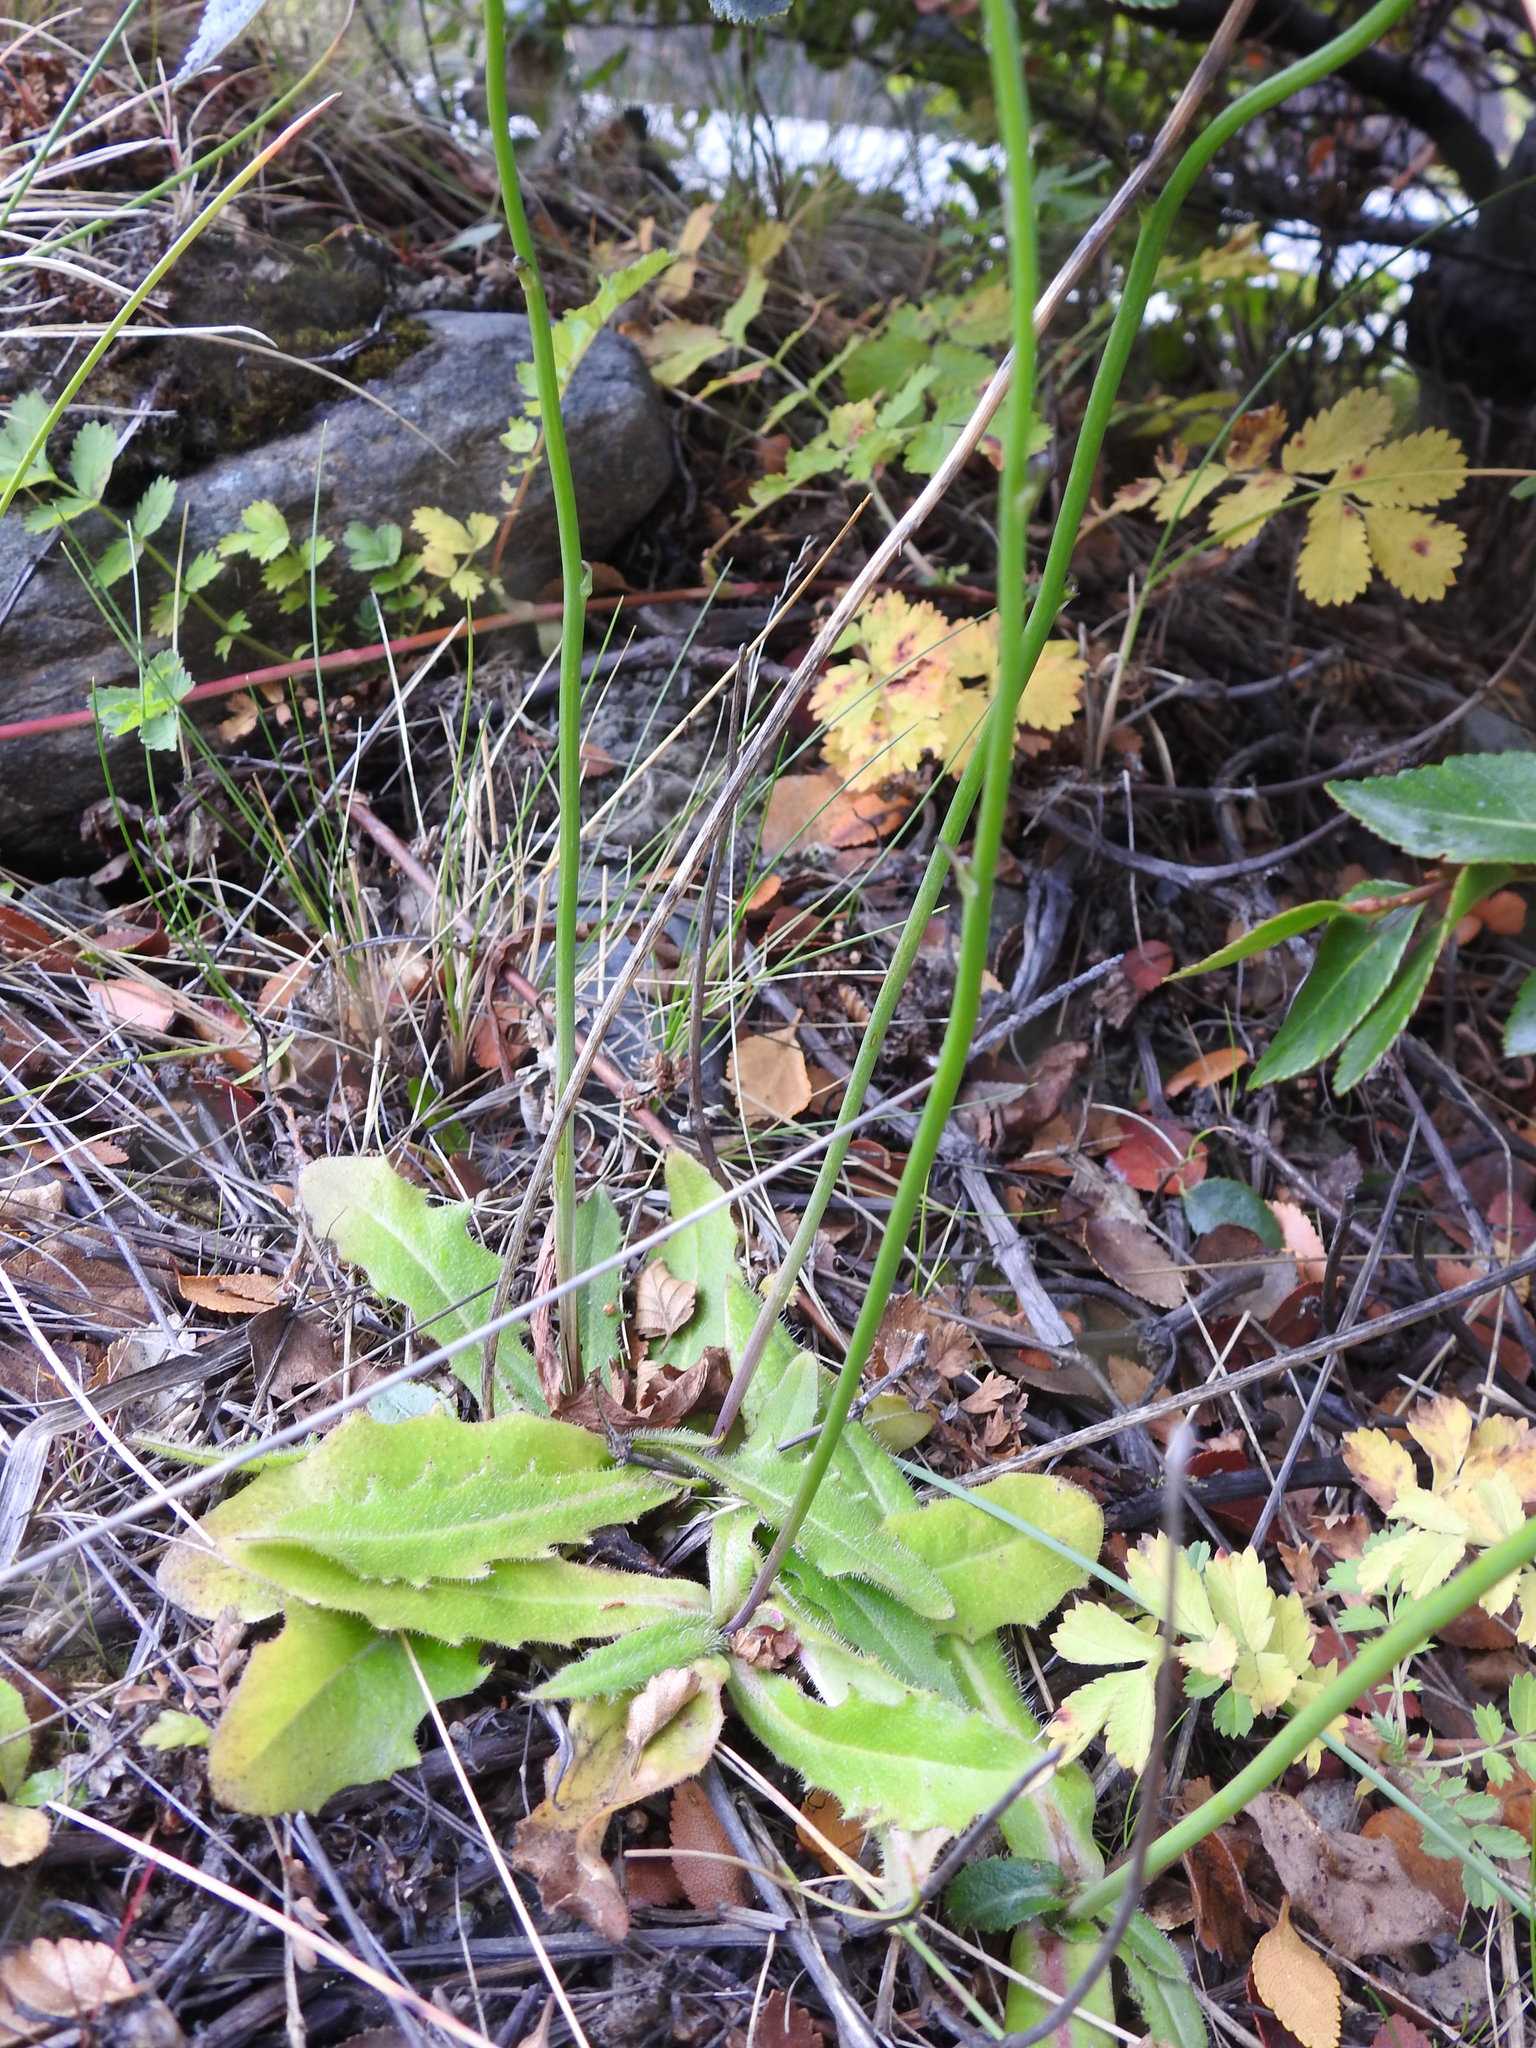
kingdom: Plantae
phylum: Tracheophyta
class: Magnoliopsida
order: Asterales
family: Asteraceae
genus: Hypochaeris
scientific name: Hypochaeris radicata
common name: Flatweed
